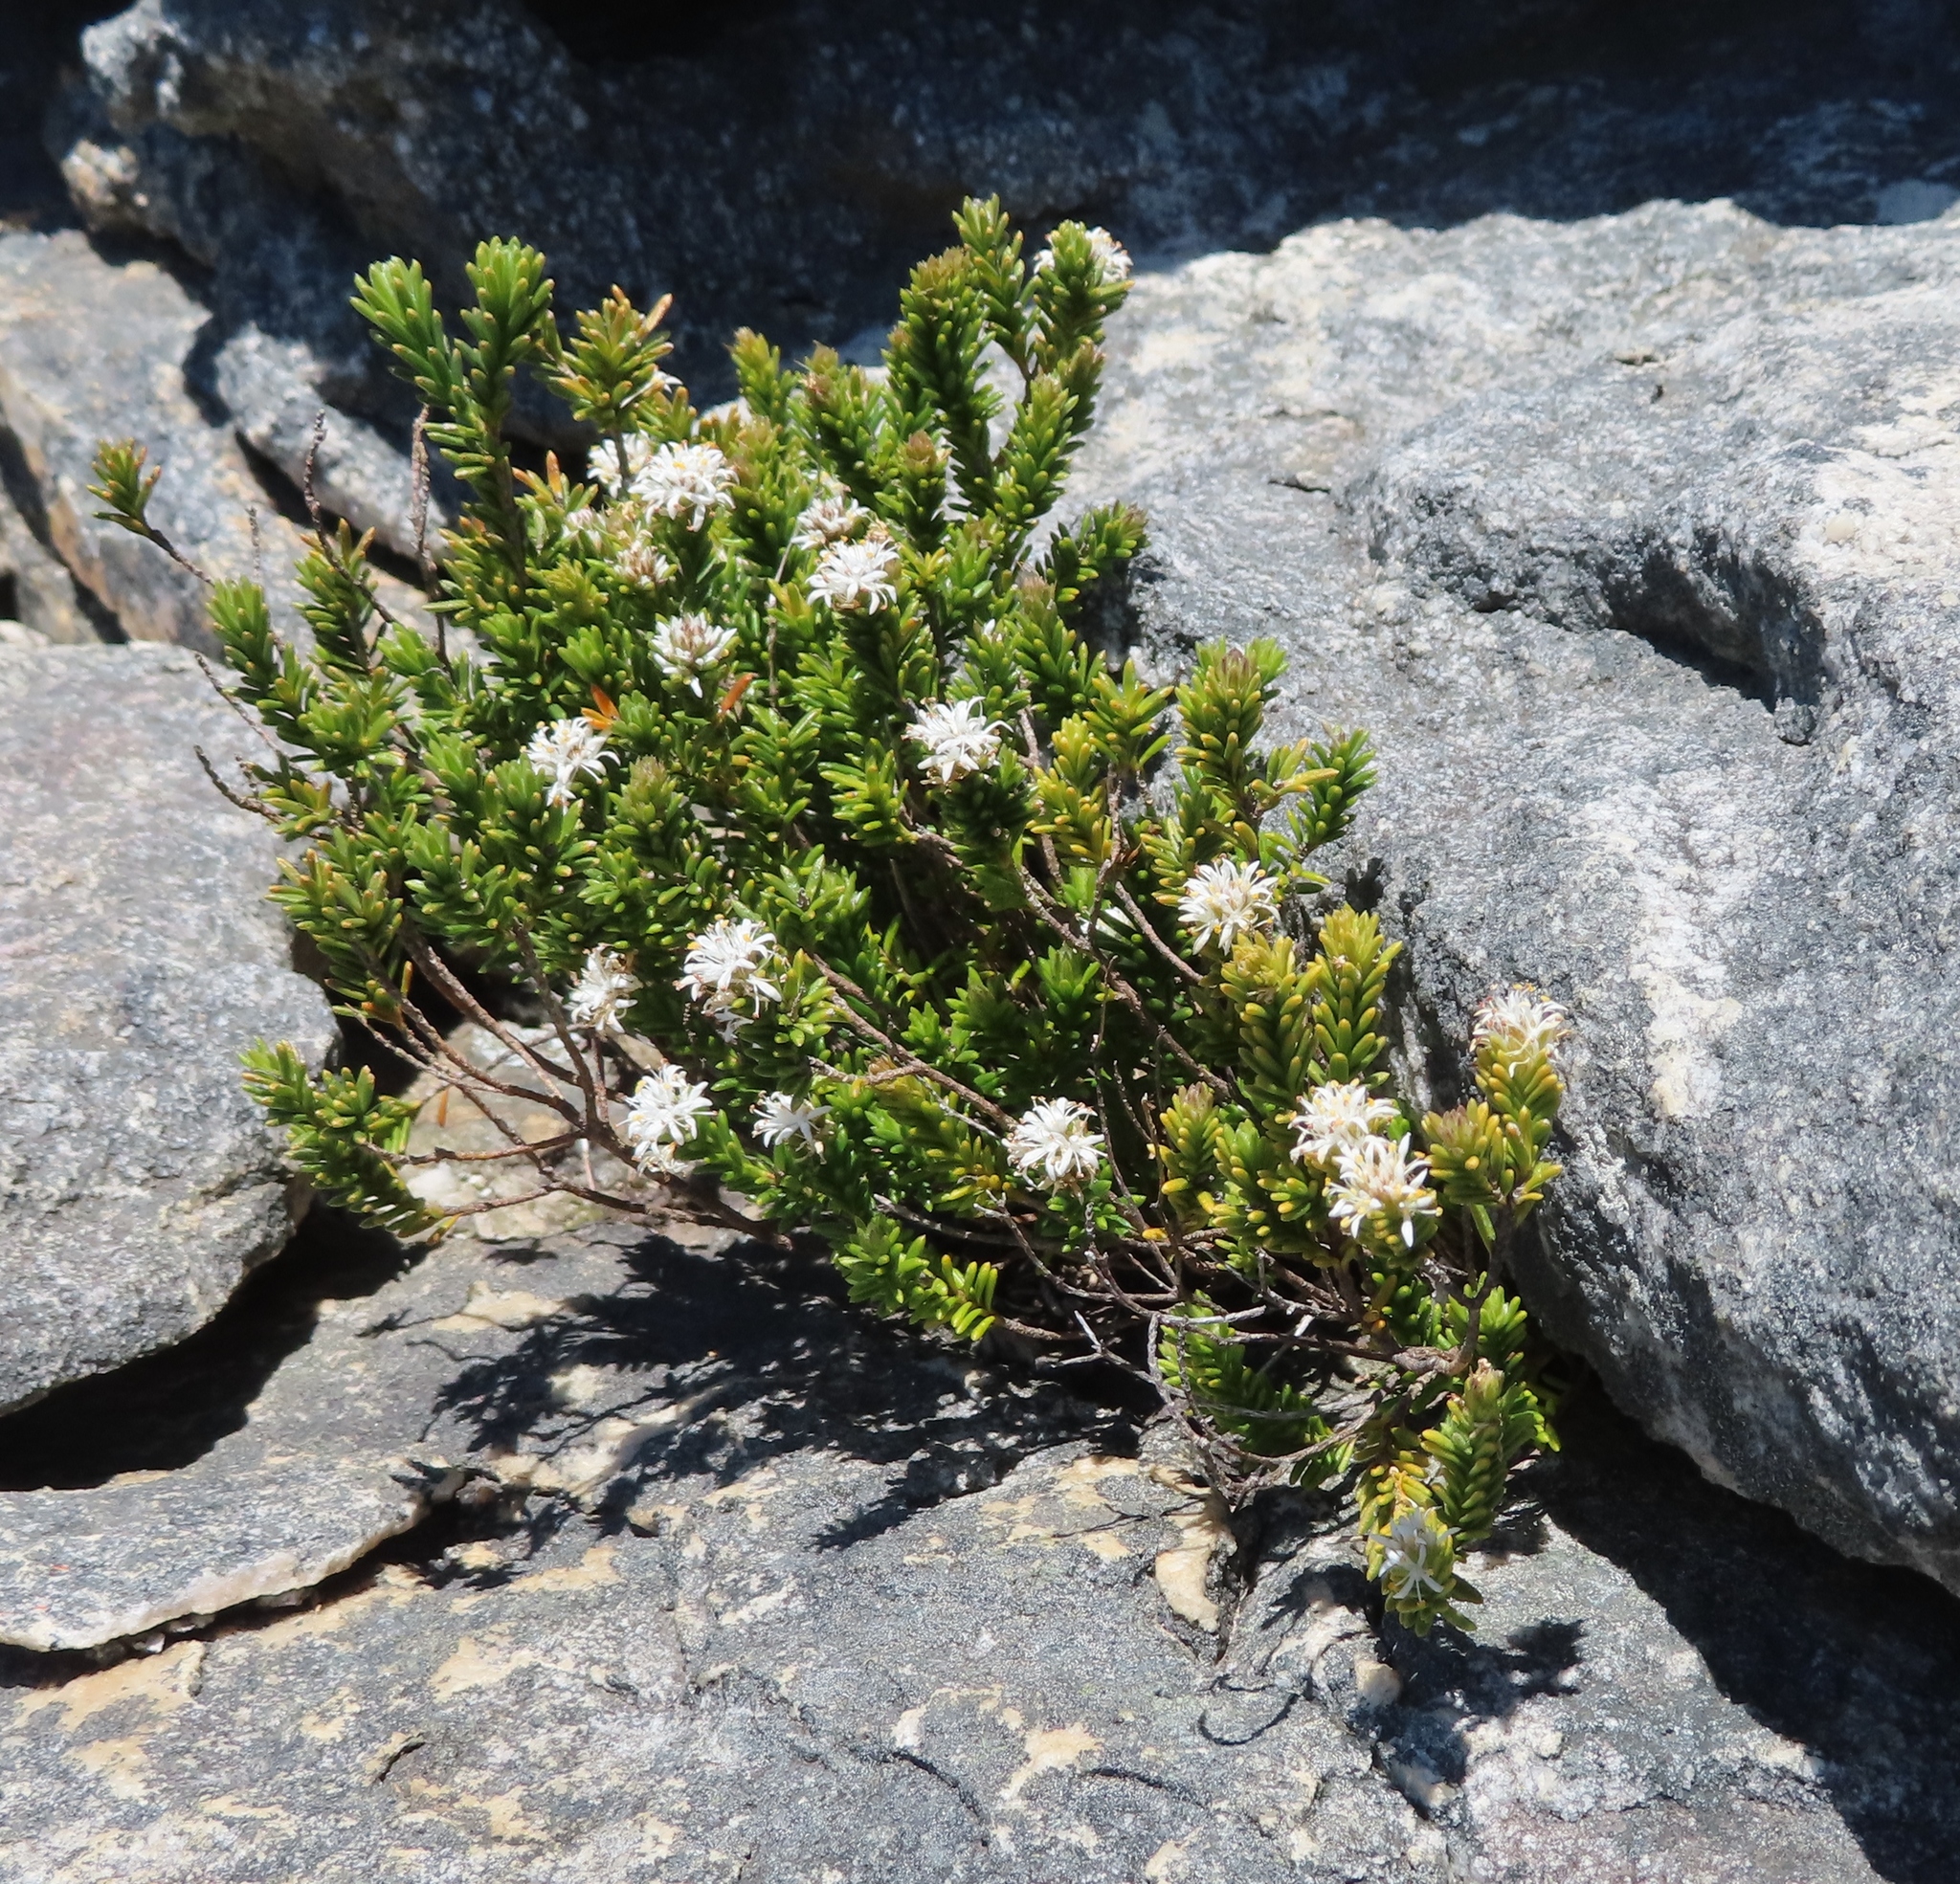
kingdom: Plantae
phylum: Tracheophyta
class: Magnoliopsida
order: Lamiales
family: Stilbaceae
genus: Stilbe
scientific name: Stilbe rupestris
